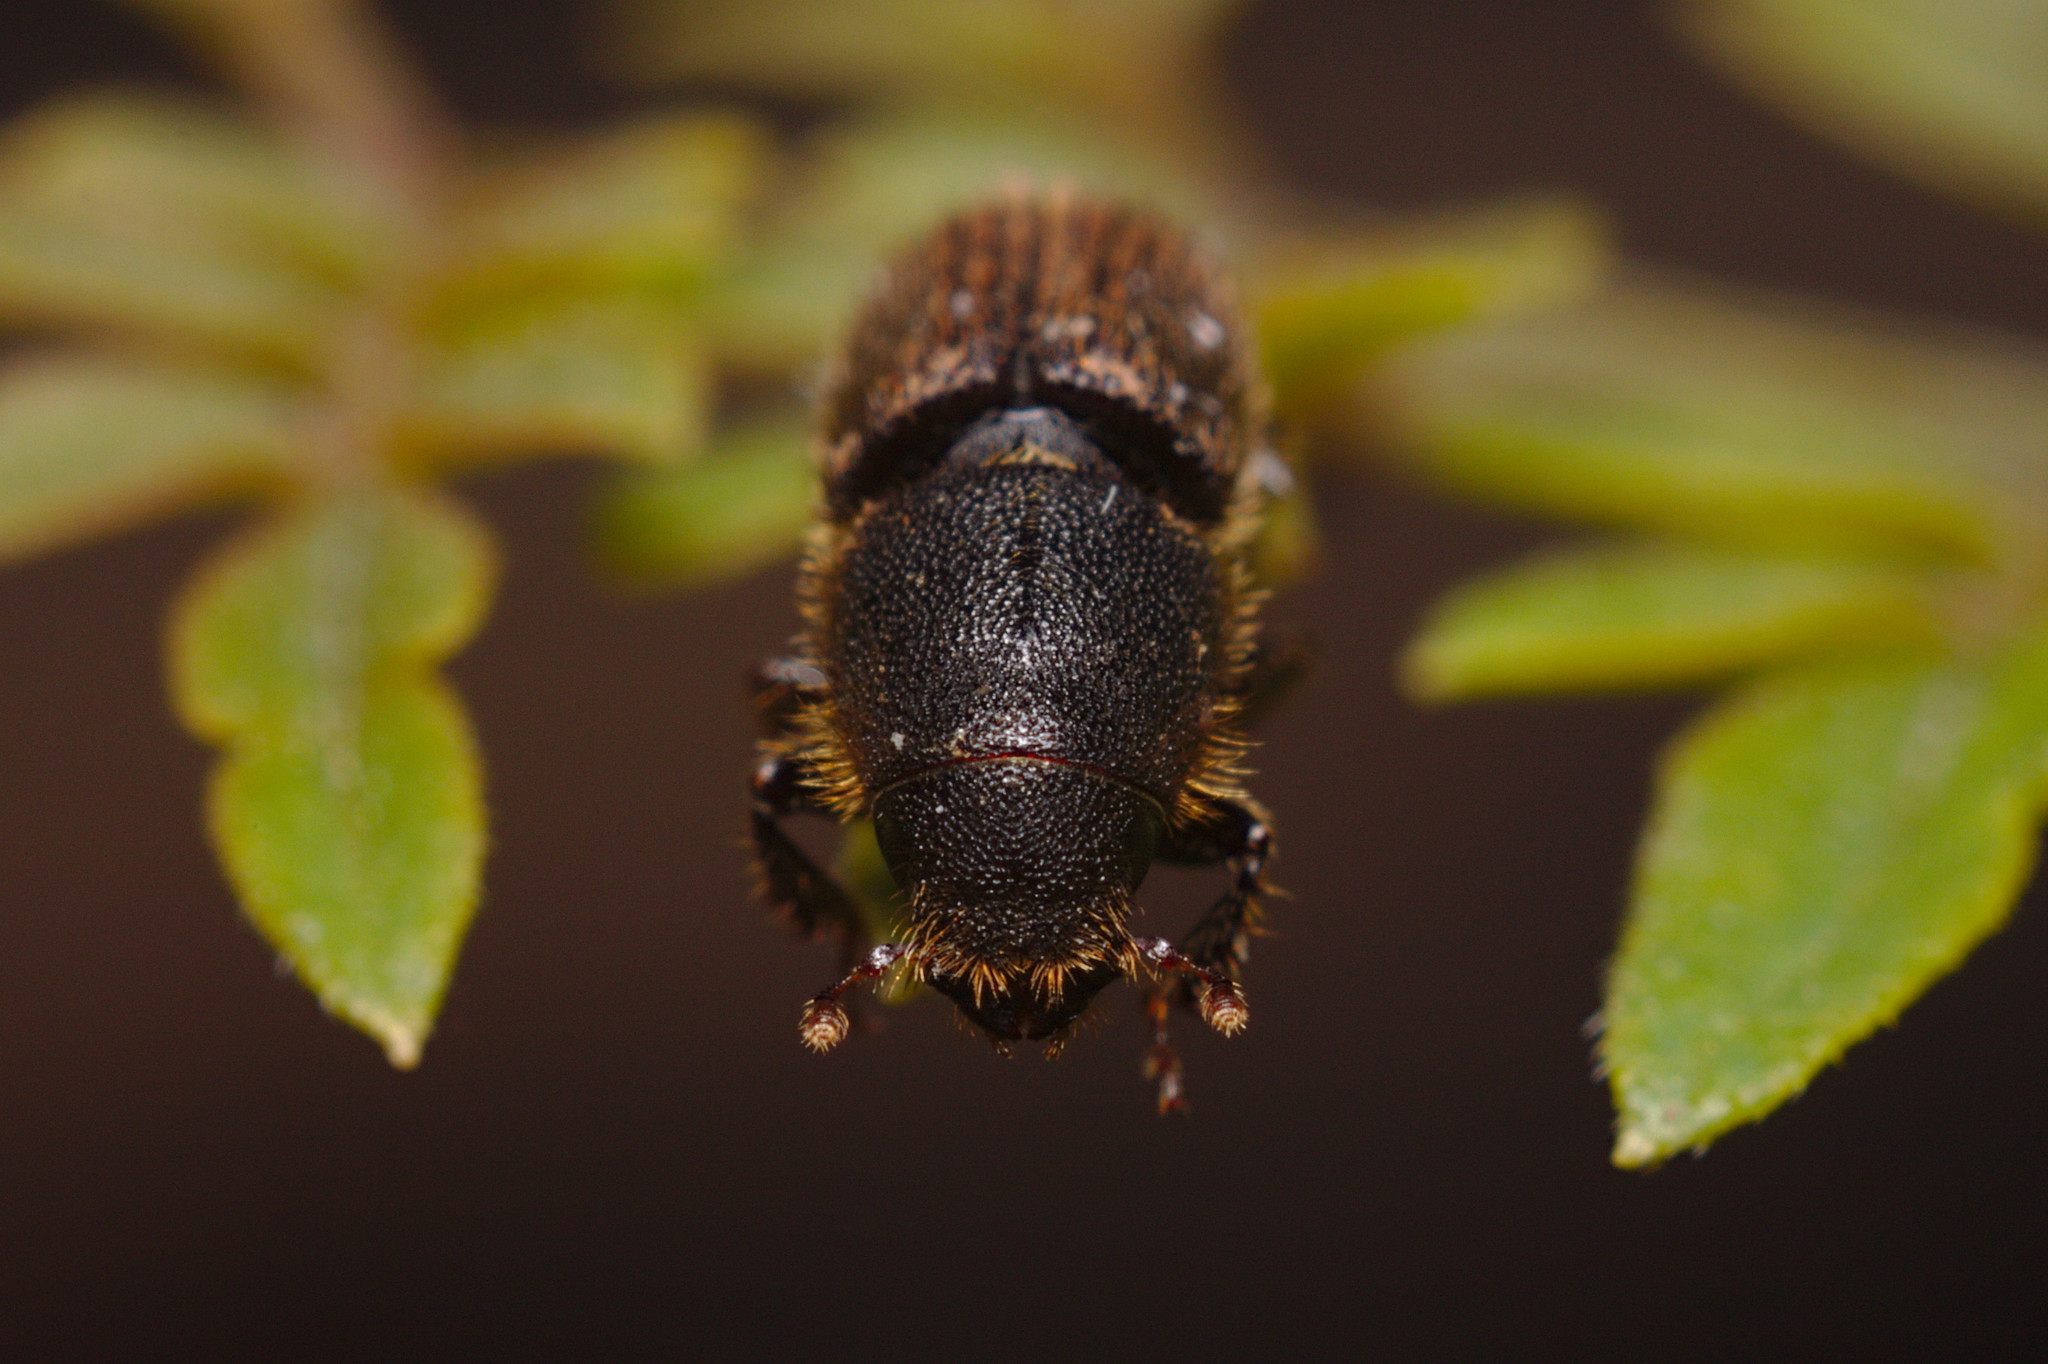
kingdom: Animalia
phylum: Arthropoda
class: Insecta
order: Coleoptera
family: Curculionidae
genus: Hylurgus
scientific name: Hylurgus ligniperda
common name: Goldenhaired bark beetle
